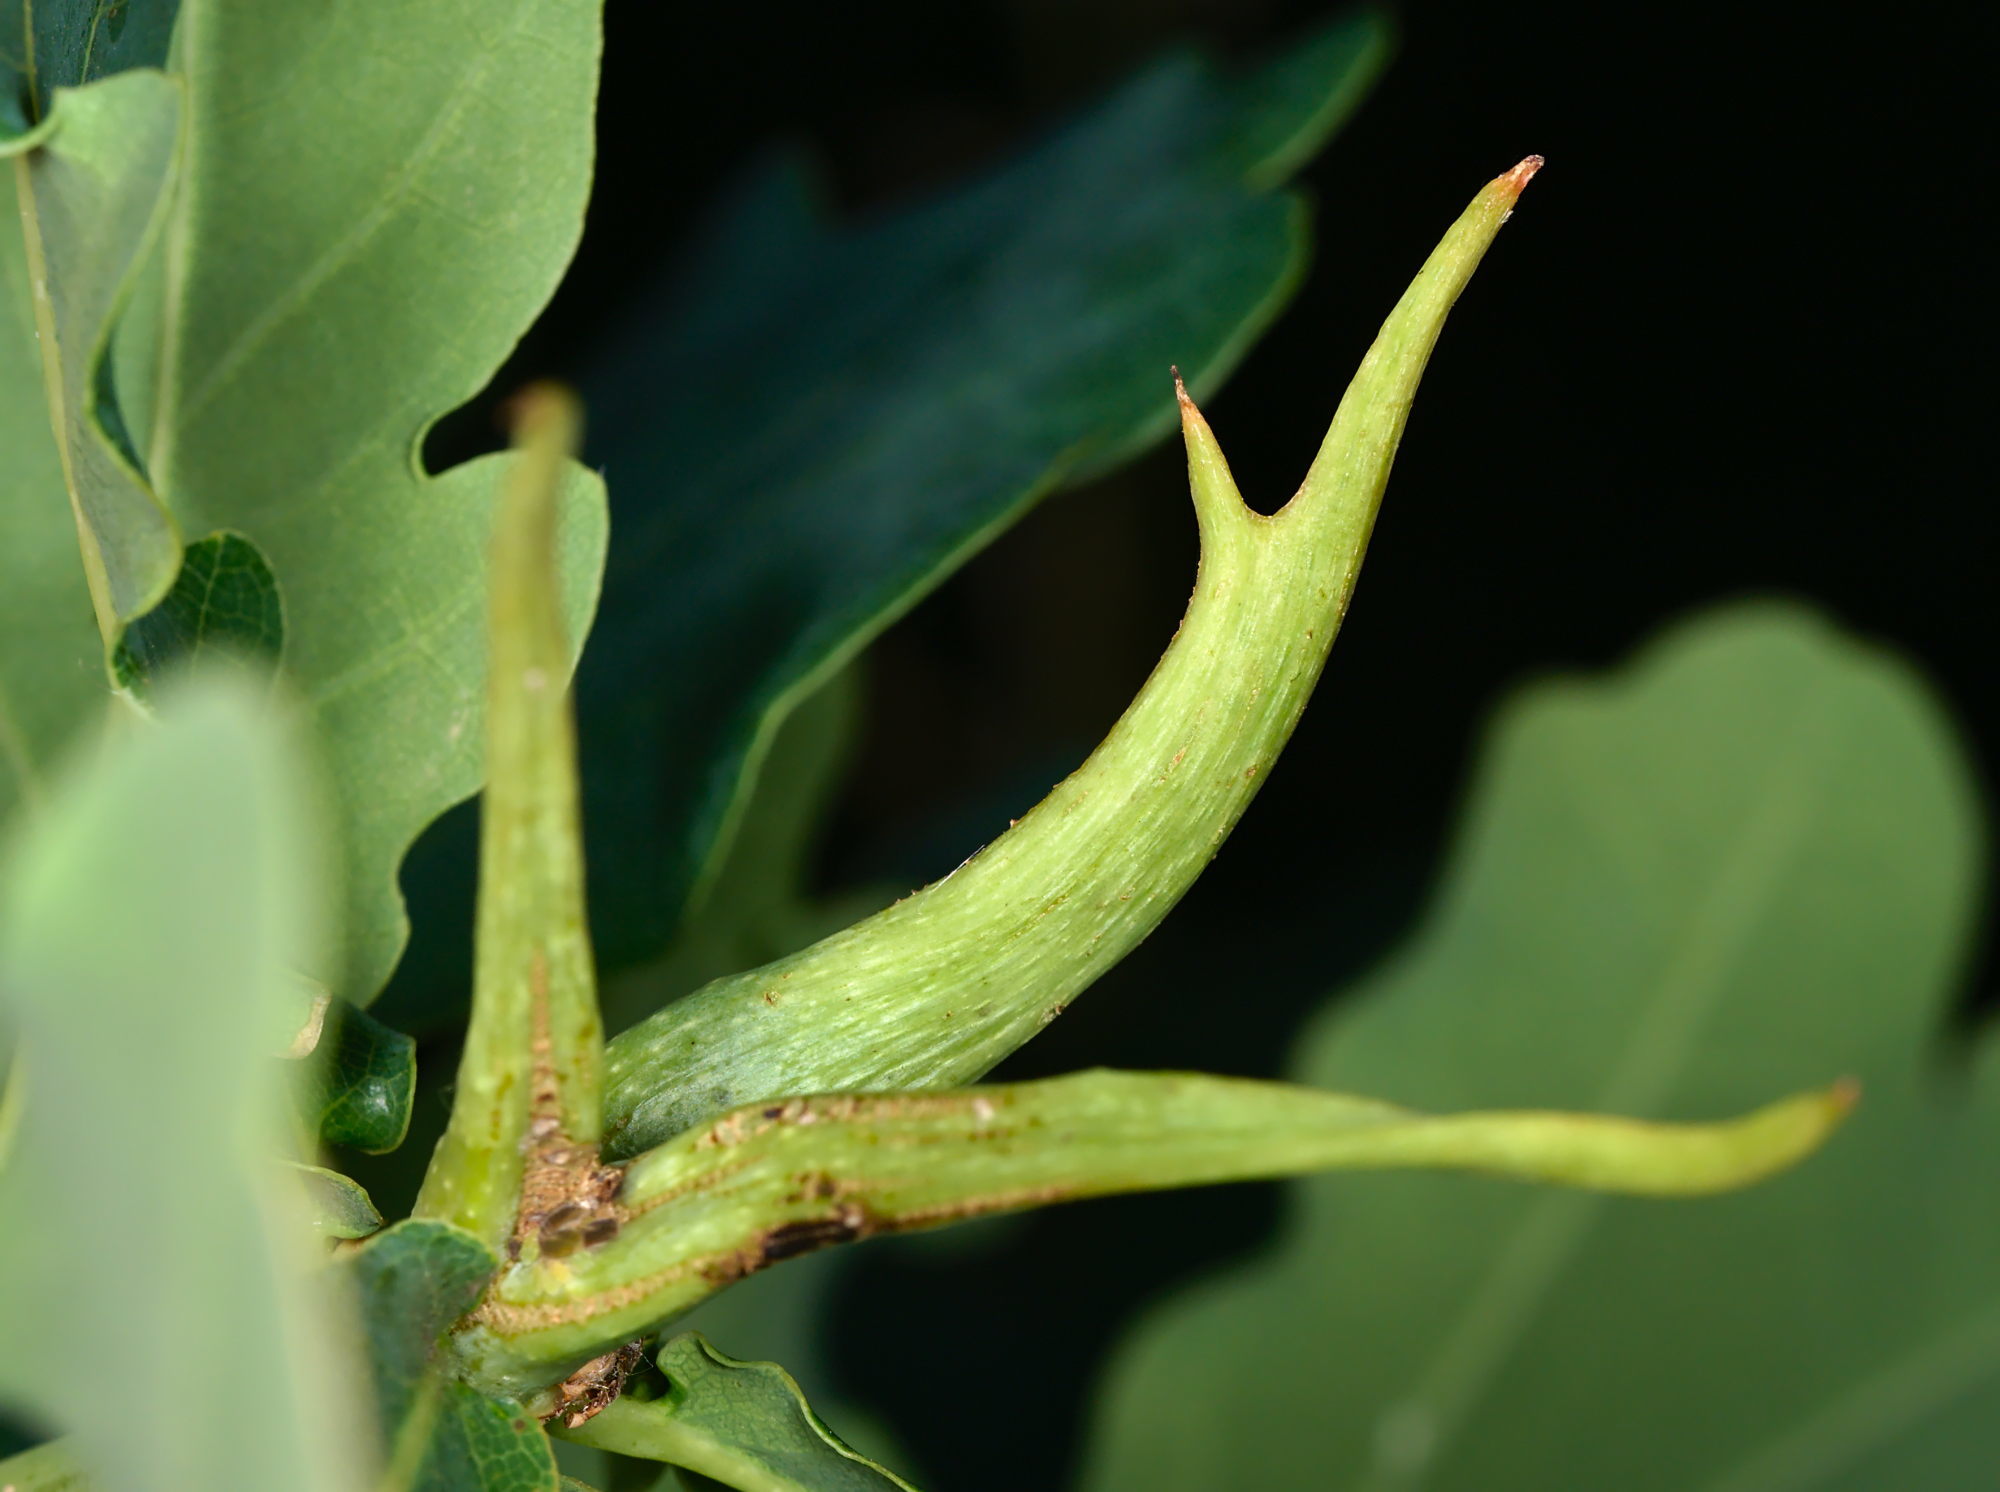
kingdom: Animalia
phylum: Arthropoda
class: Insecta
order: Hymenoptera
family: Cynipidae
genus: Andricus
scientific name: Andricus aries
